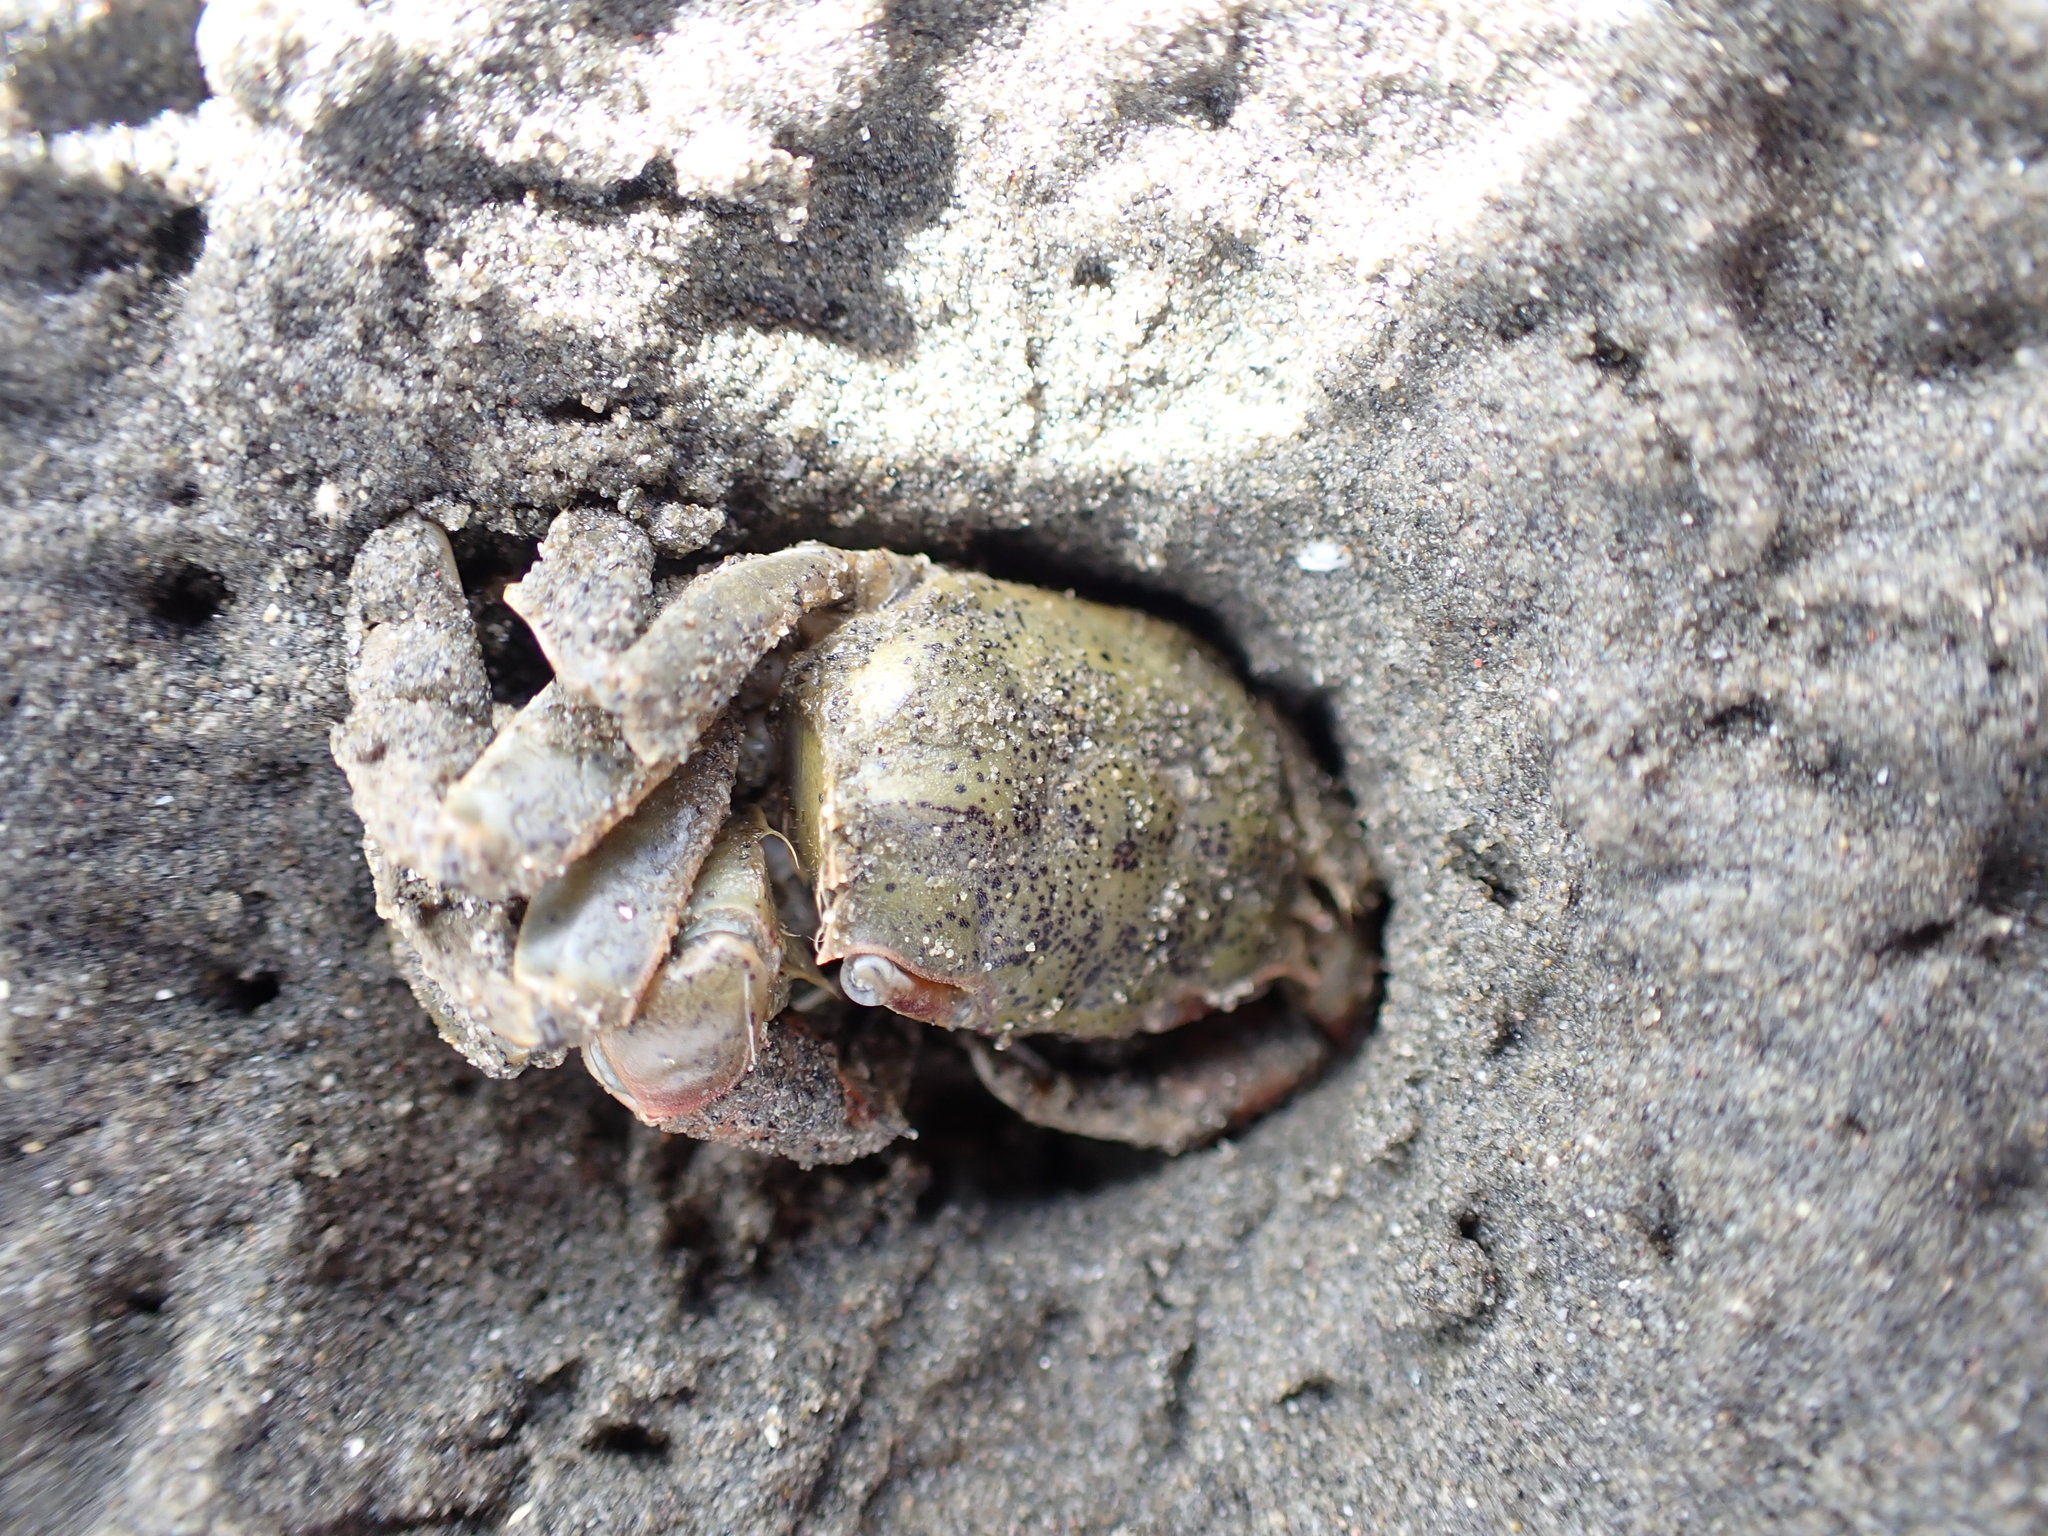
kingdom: Animalia
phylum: Arthropoda
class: Malacostraca
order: Decapoda
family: Macrophthalmidae
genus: Hemiplax
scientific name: Hemiplax hirtipes
